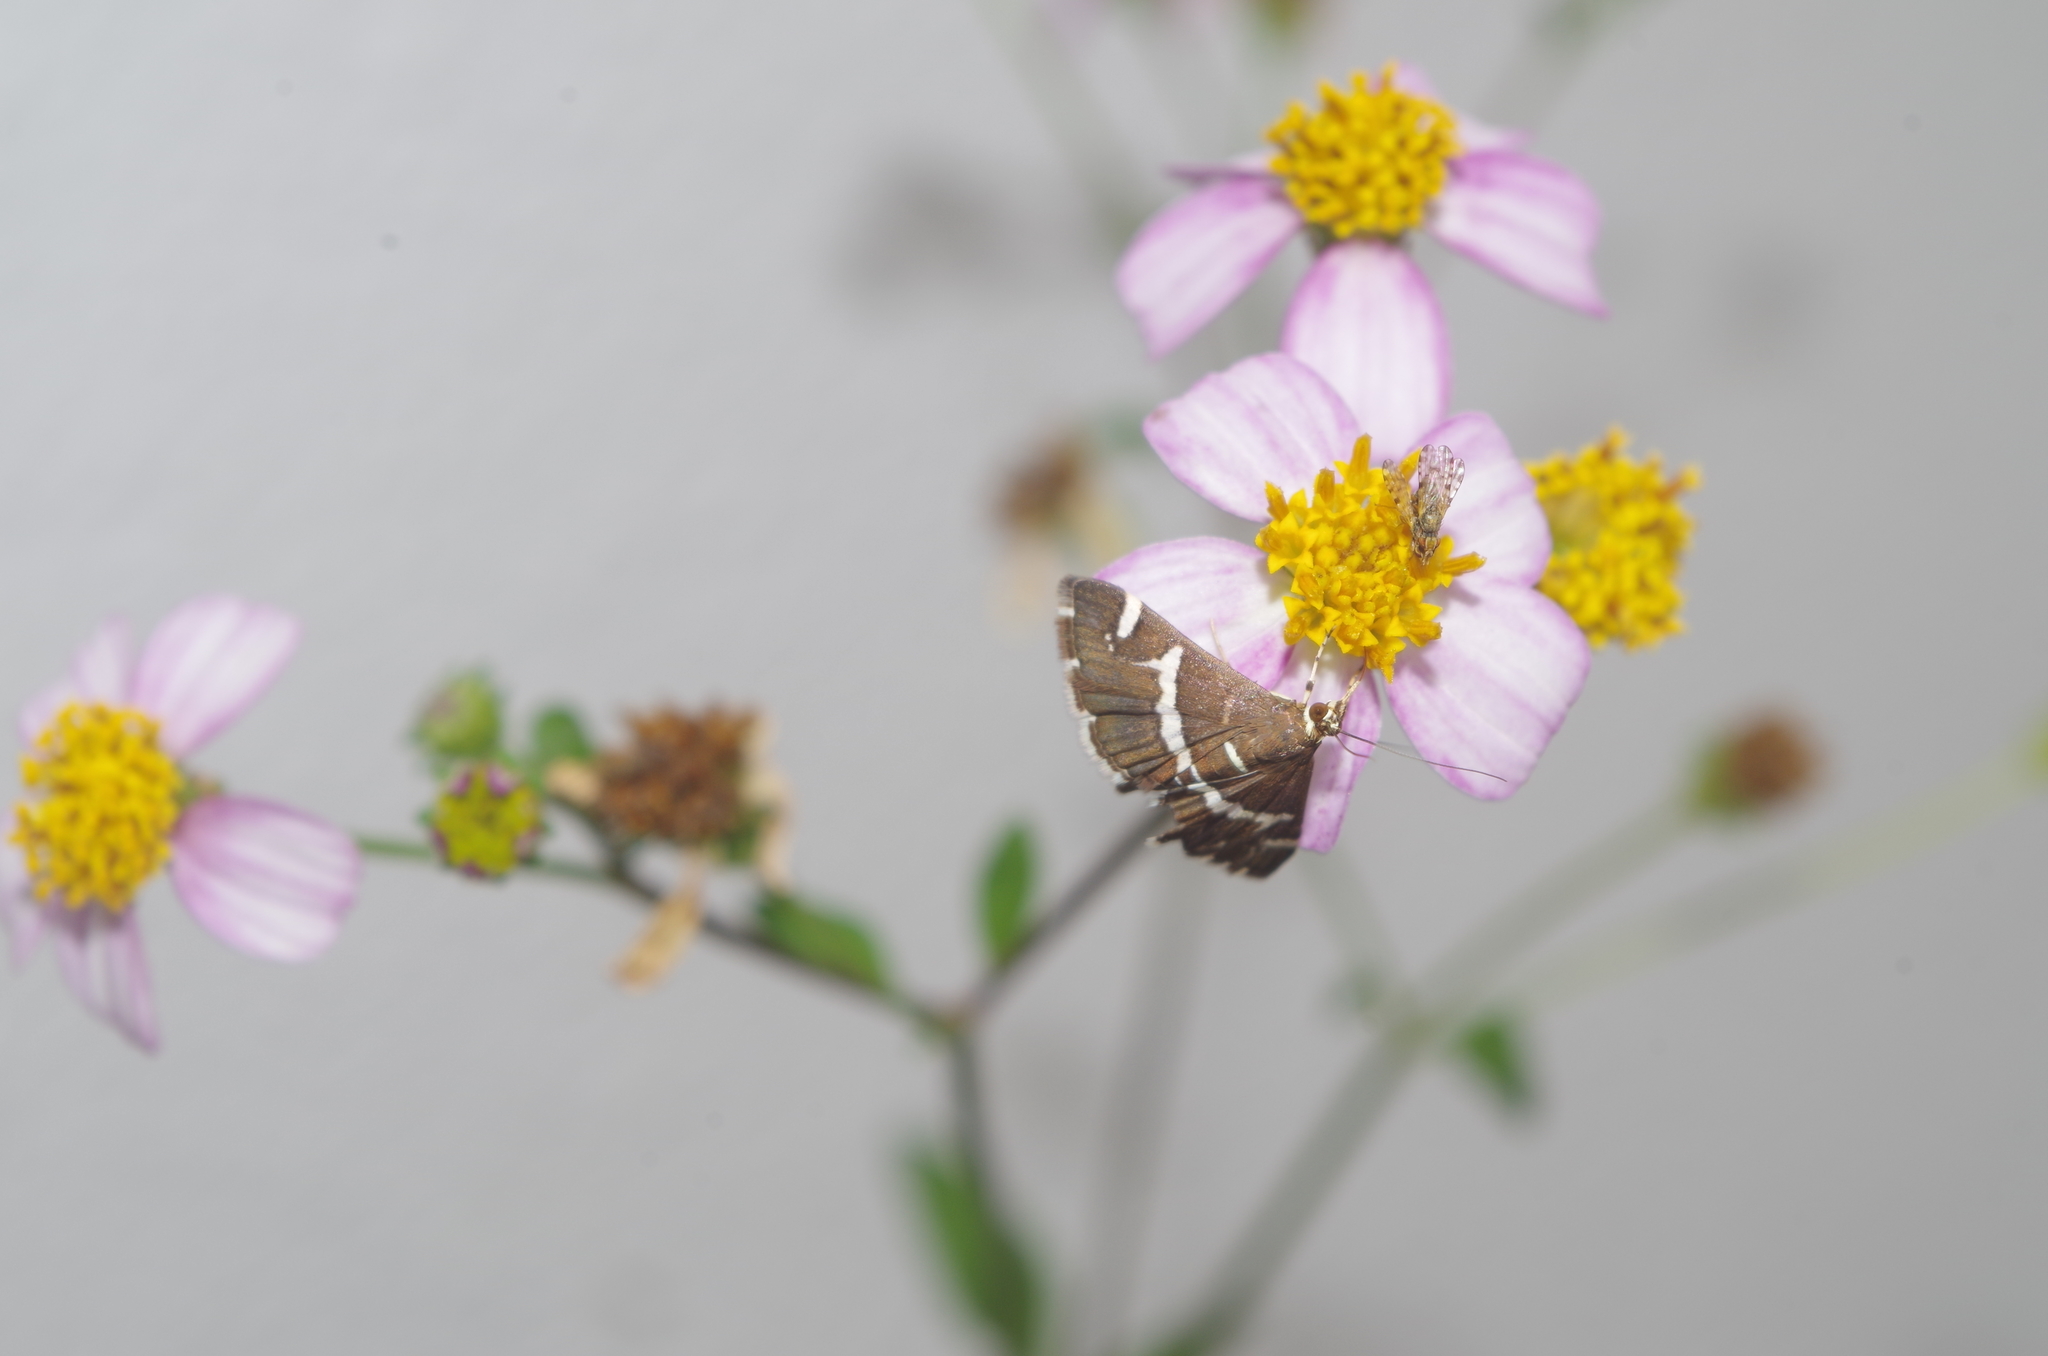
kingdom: Animalia
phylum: Arthropoda
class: Insecta
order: Lepidoptera
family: Crambidae
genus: Spoladea
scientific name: Spoladea recurvalis
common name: Beet webworm moth
